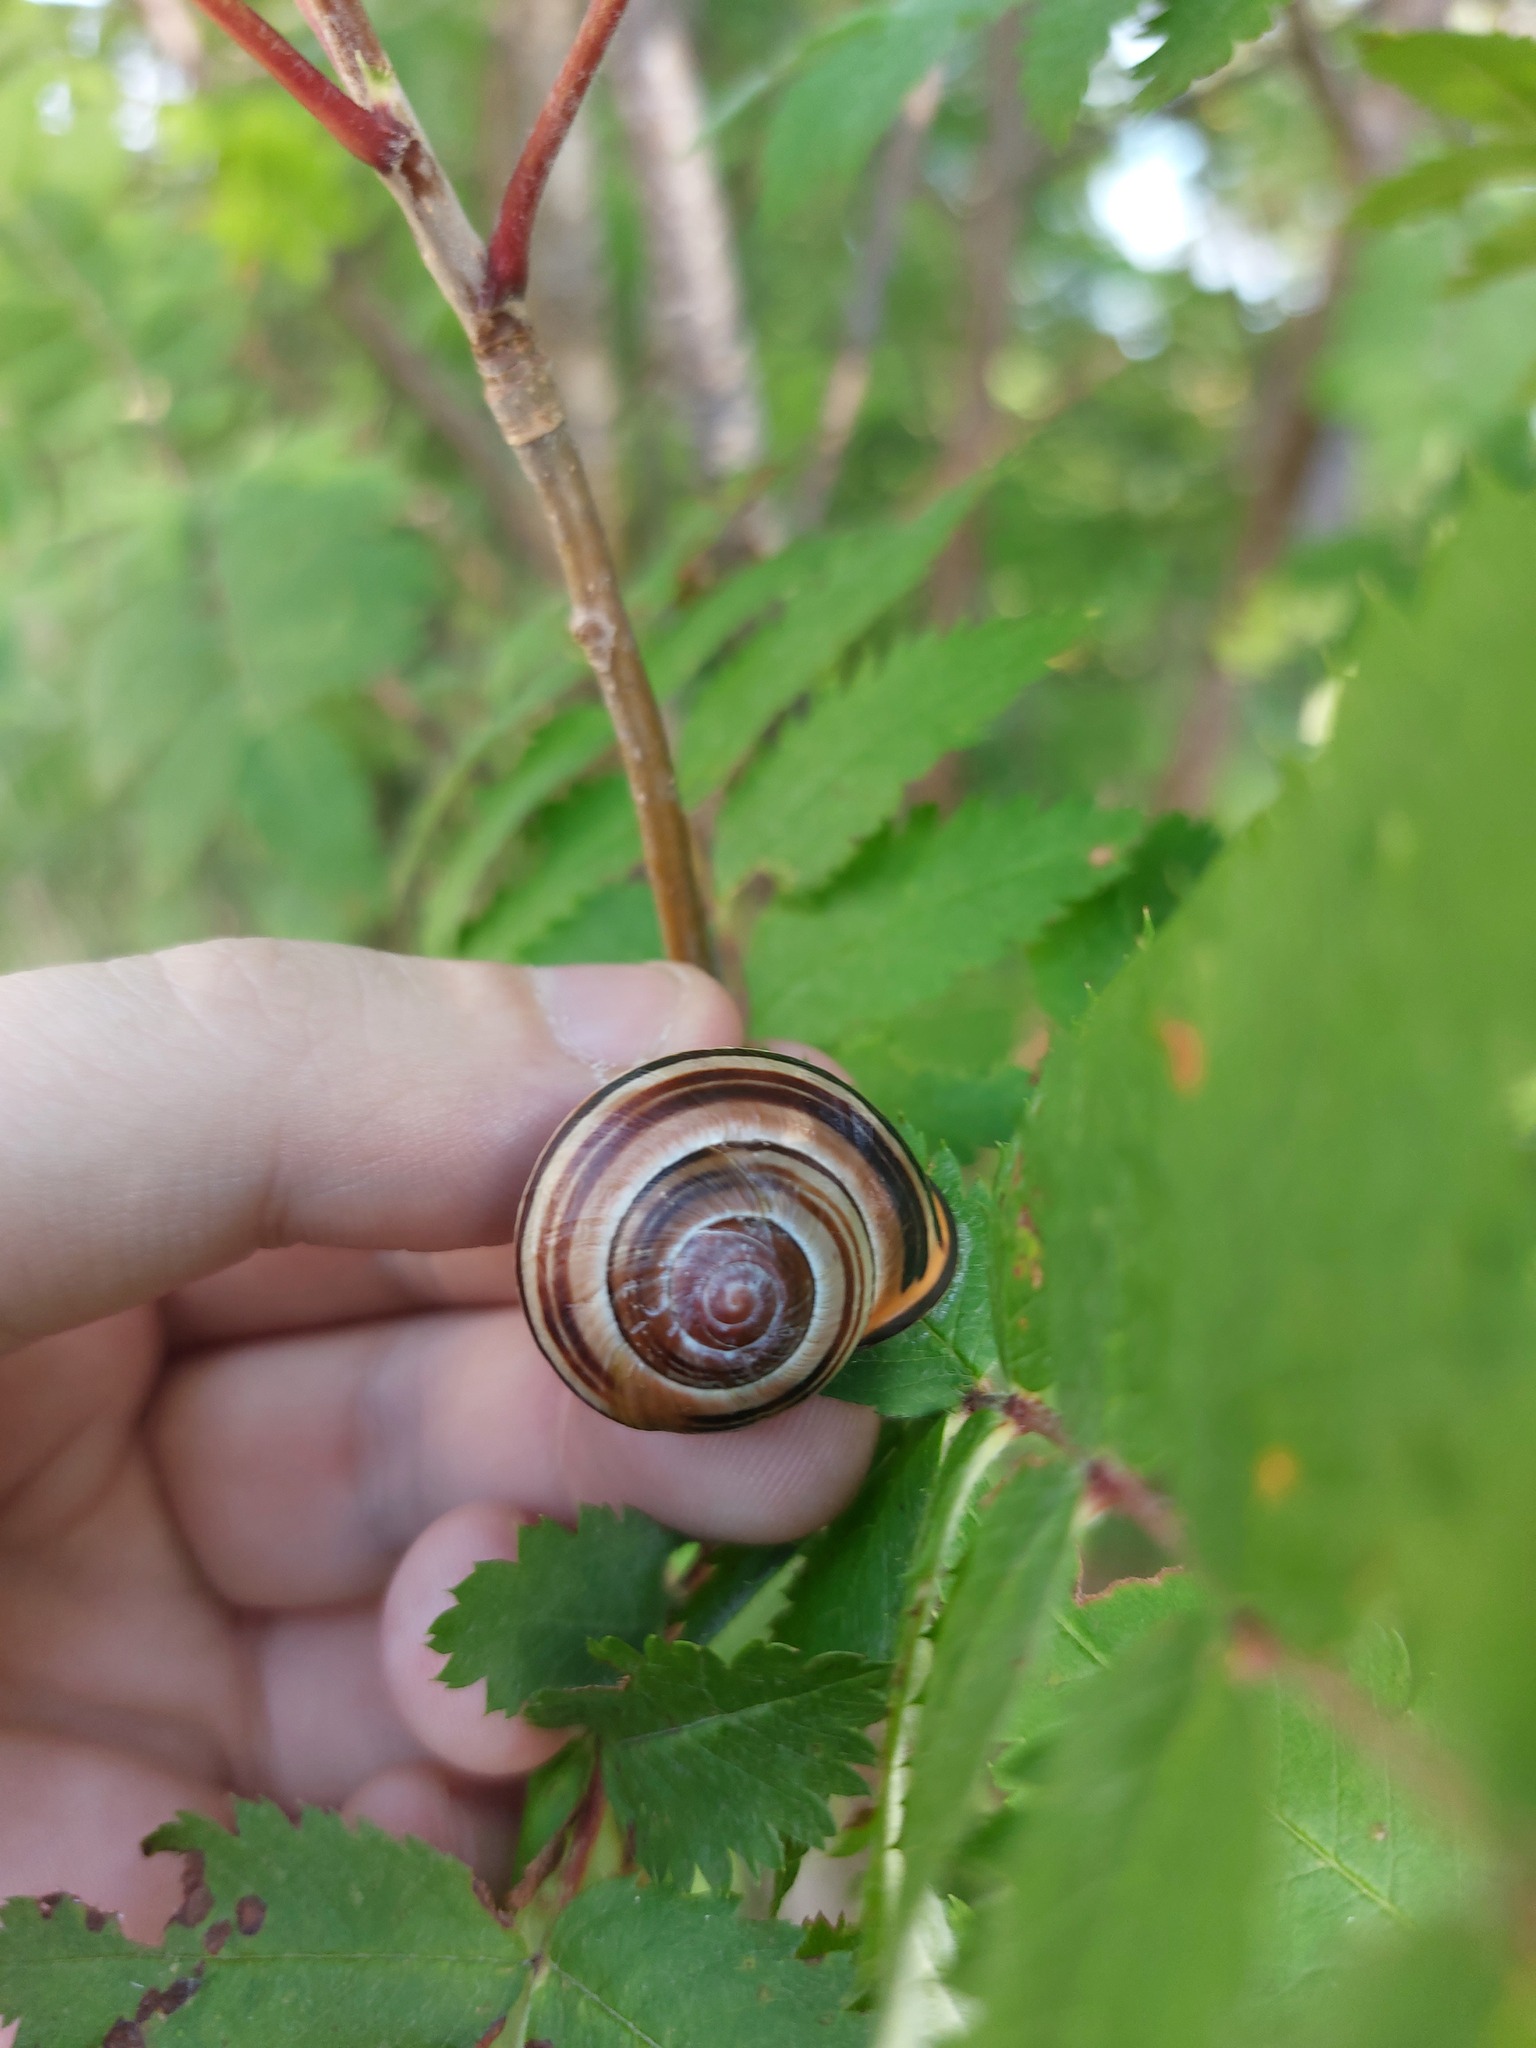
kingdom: Animalia
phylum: Mollusca
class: Gastropoda
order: Stylommatophora
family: Helicidae
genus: Cepaea
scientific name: Cepaea nemoralis
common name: Grovesnail
